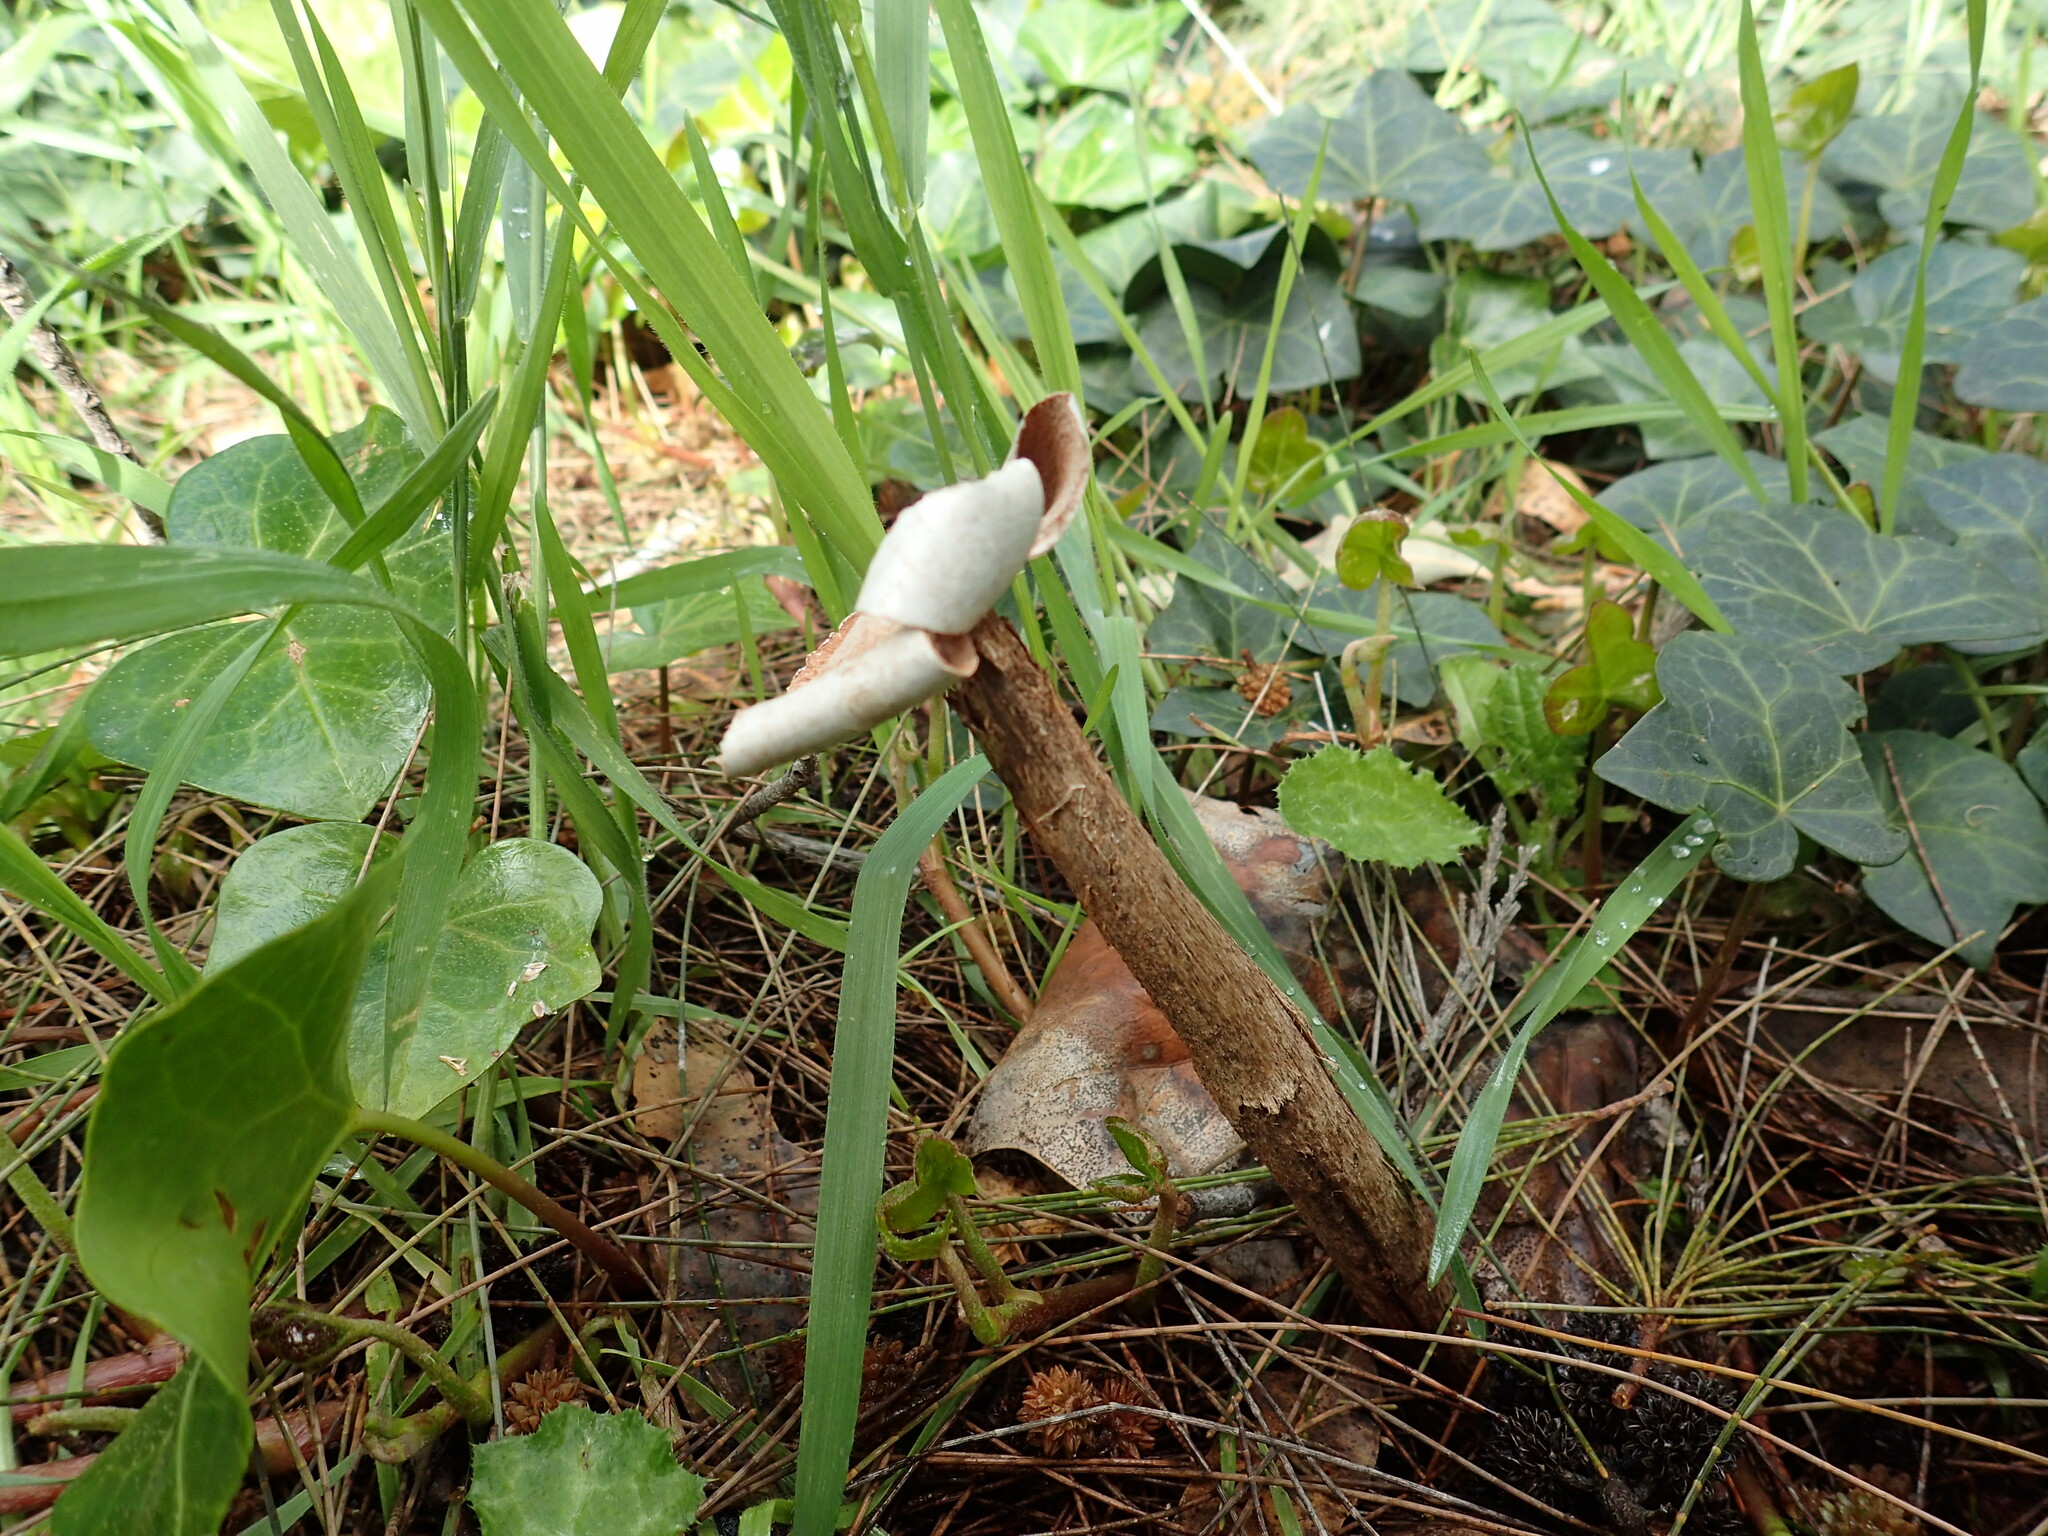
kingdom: Fungi
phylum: Basidiomycota
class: Agaricomycetes
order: Agaricales
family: Agaricaceae
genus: Battarrea
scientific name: Battarrea phalloides
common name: Sandy stiltball
